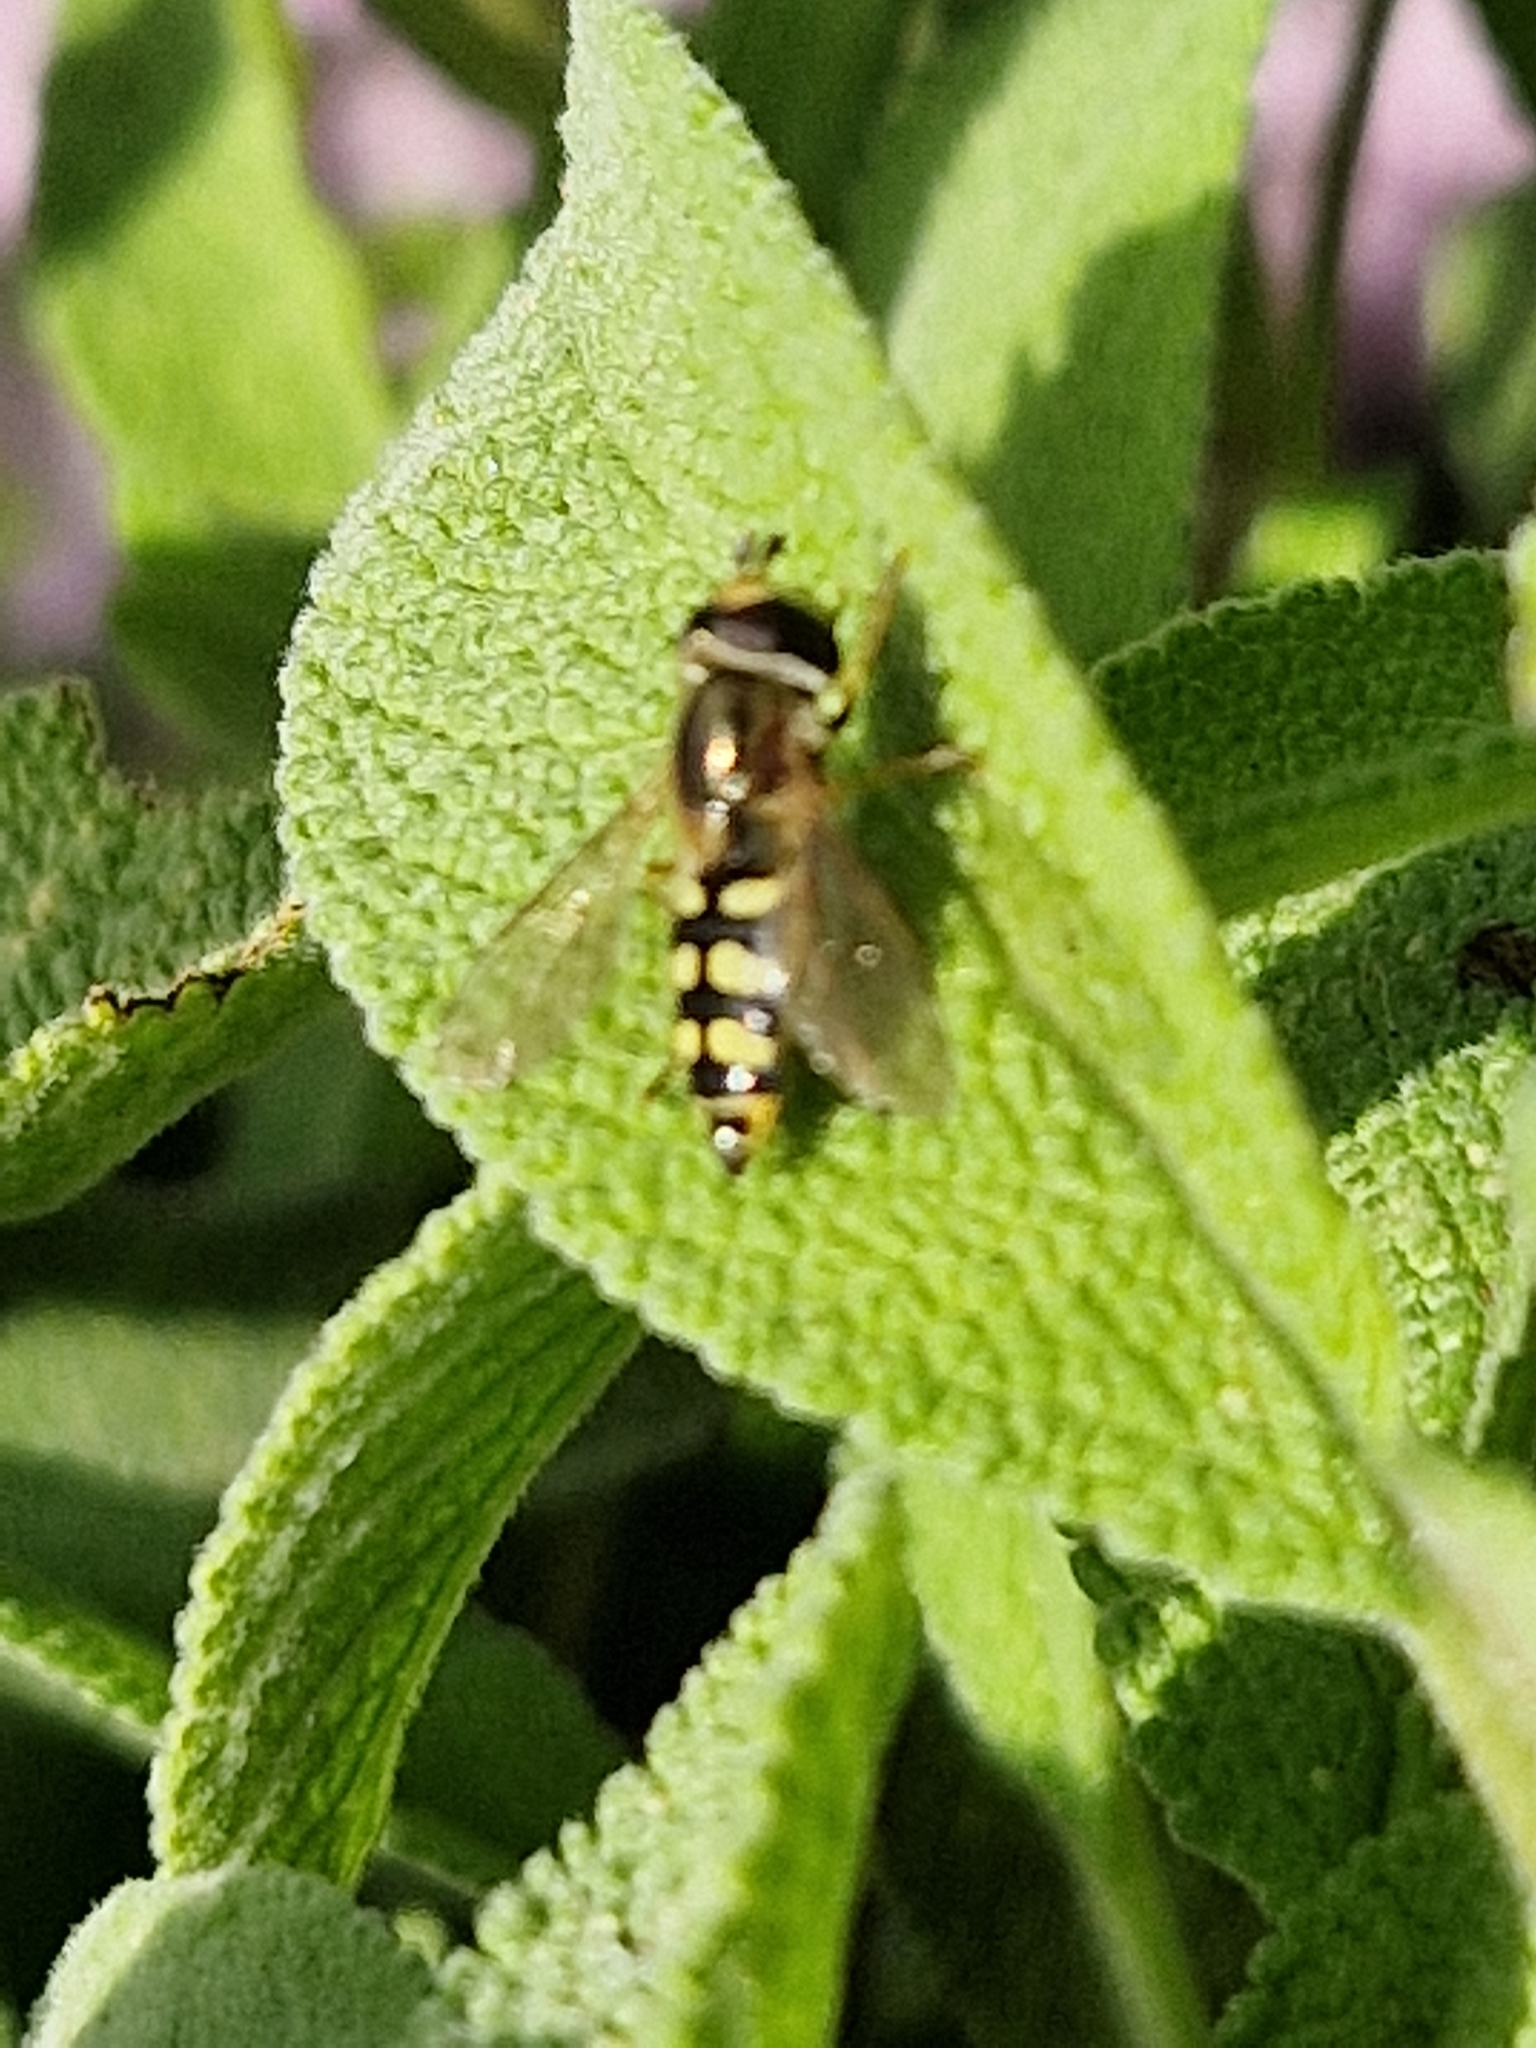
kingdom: Animalia
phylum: Arthropoda
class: Insecta
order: Diptera
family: Syrphidae
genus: Eupeodes
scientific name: Eupeodes
